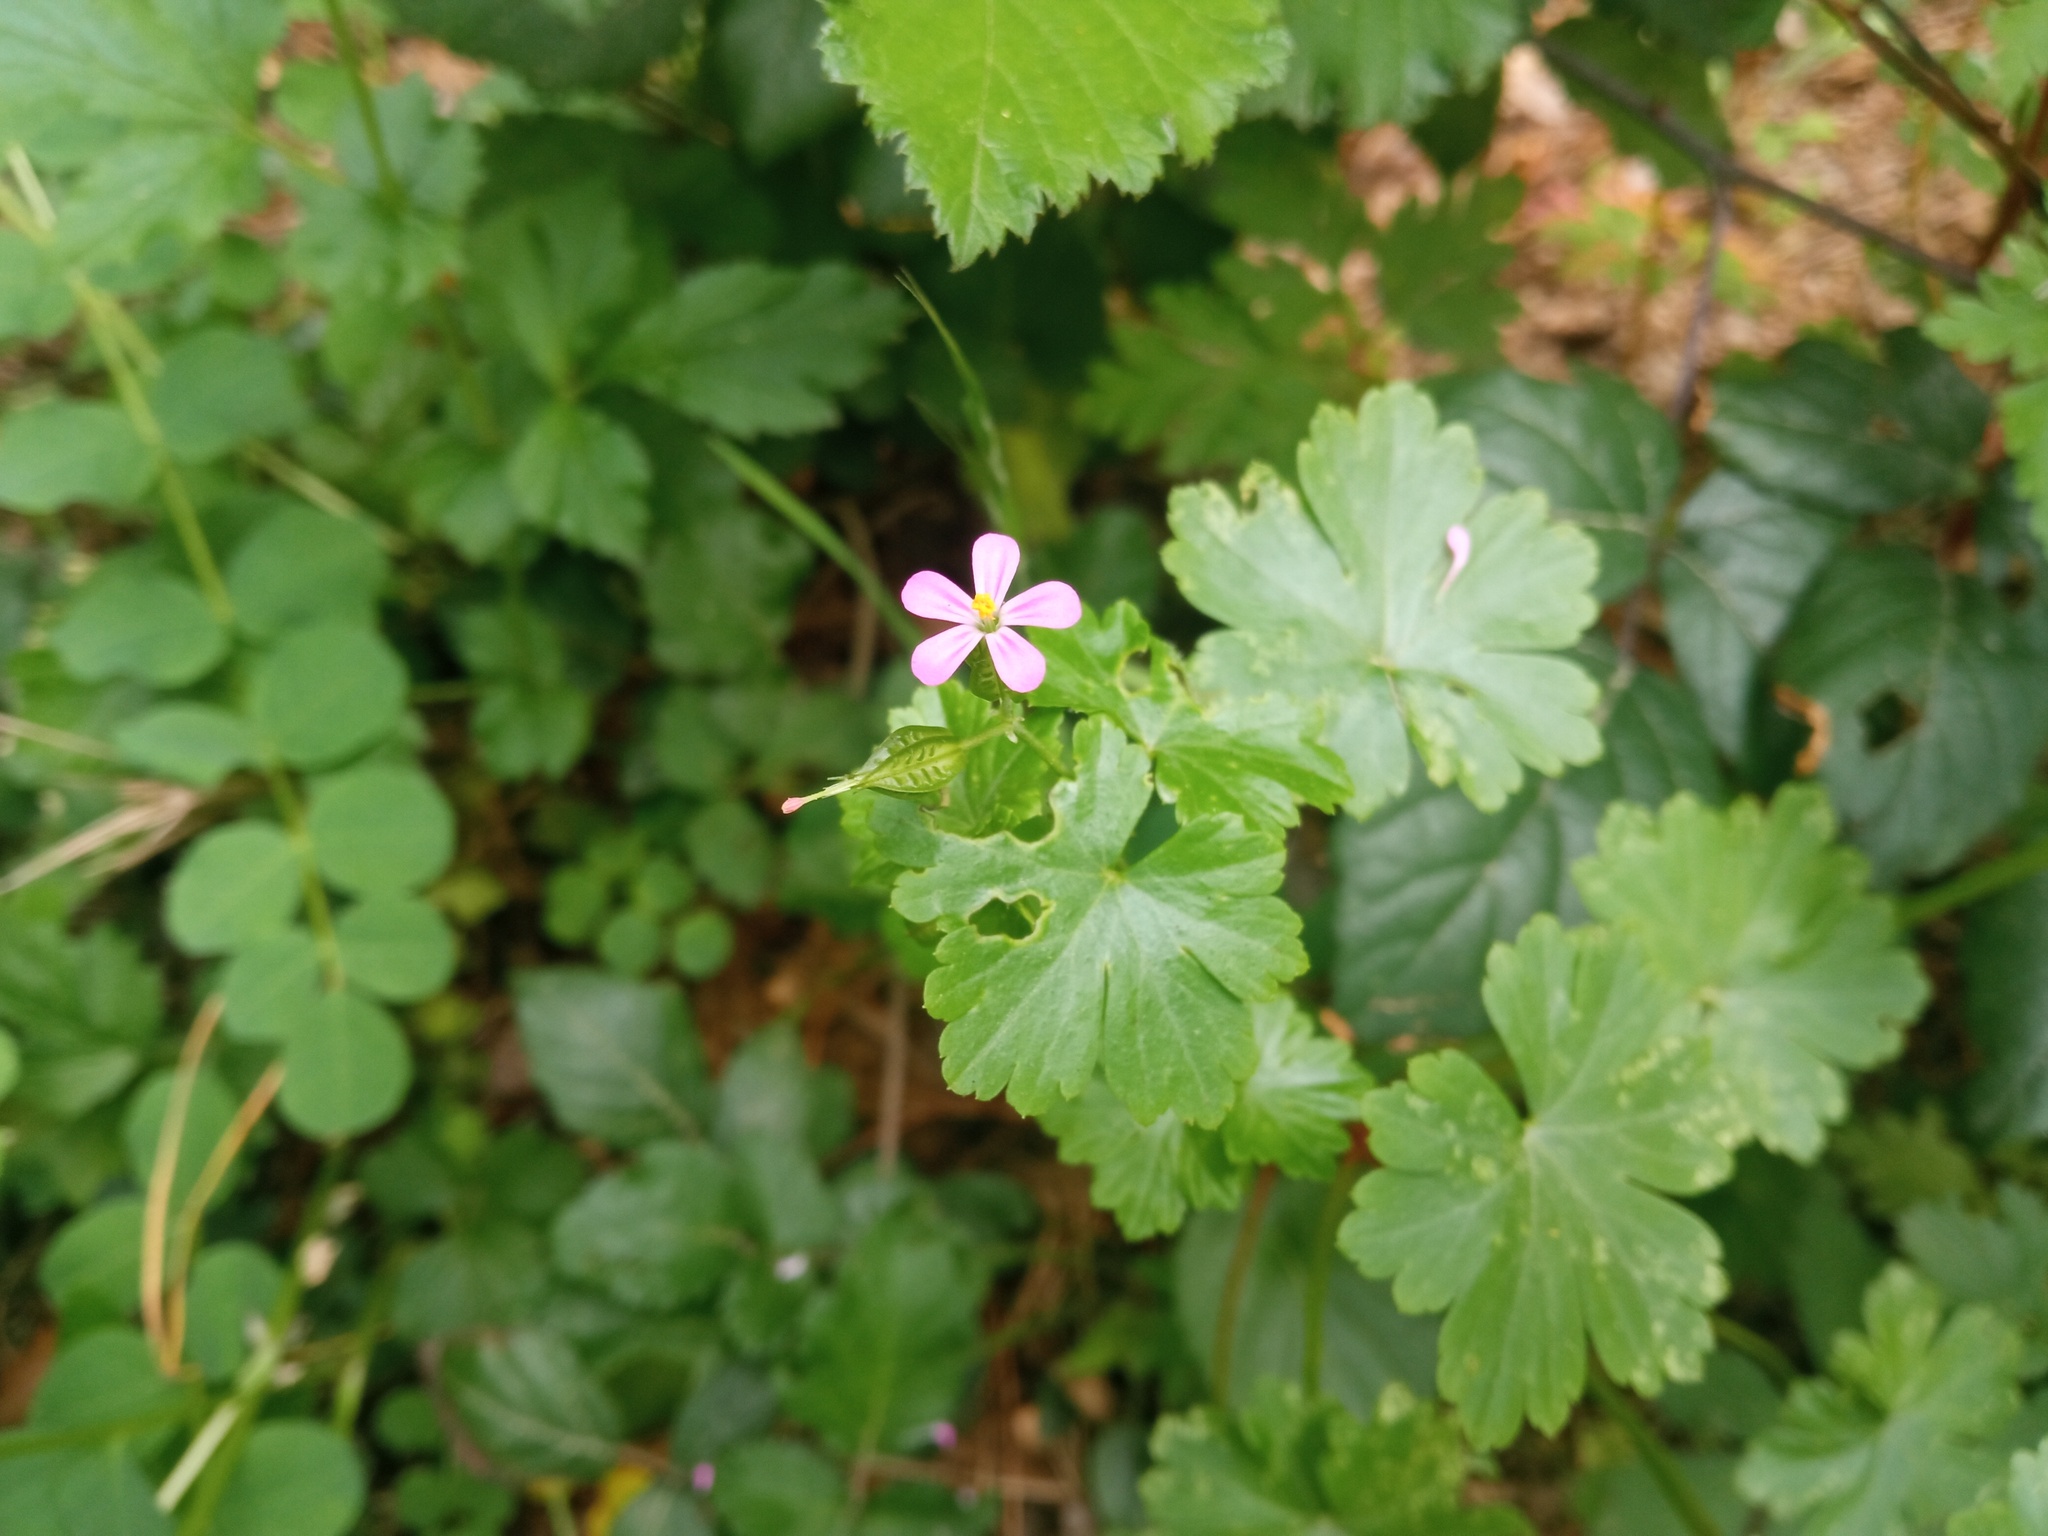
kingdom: Plantae
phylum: Tracheophyta
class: Magnoliopsida
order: Geraniales
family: Geraniaceae
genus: Geranium
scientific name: Geranium lucidum
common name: Shining crane's-bill
